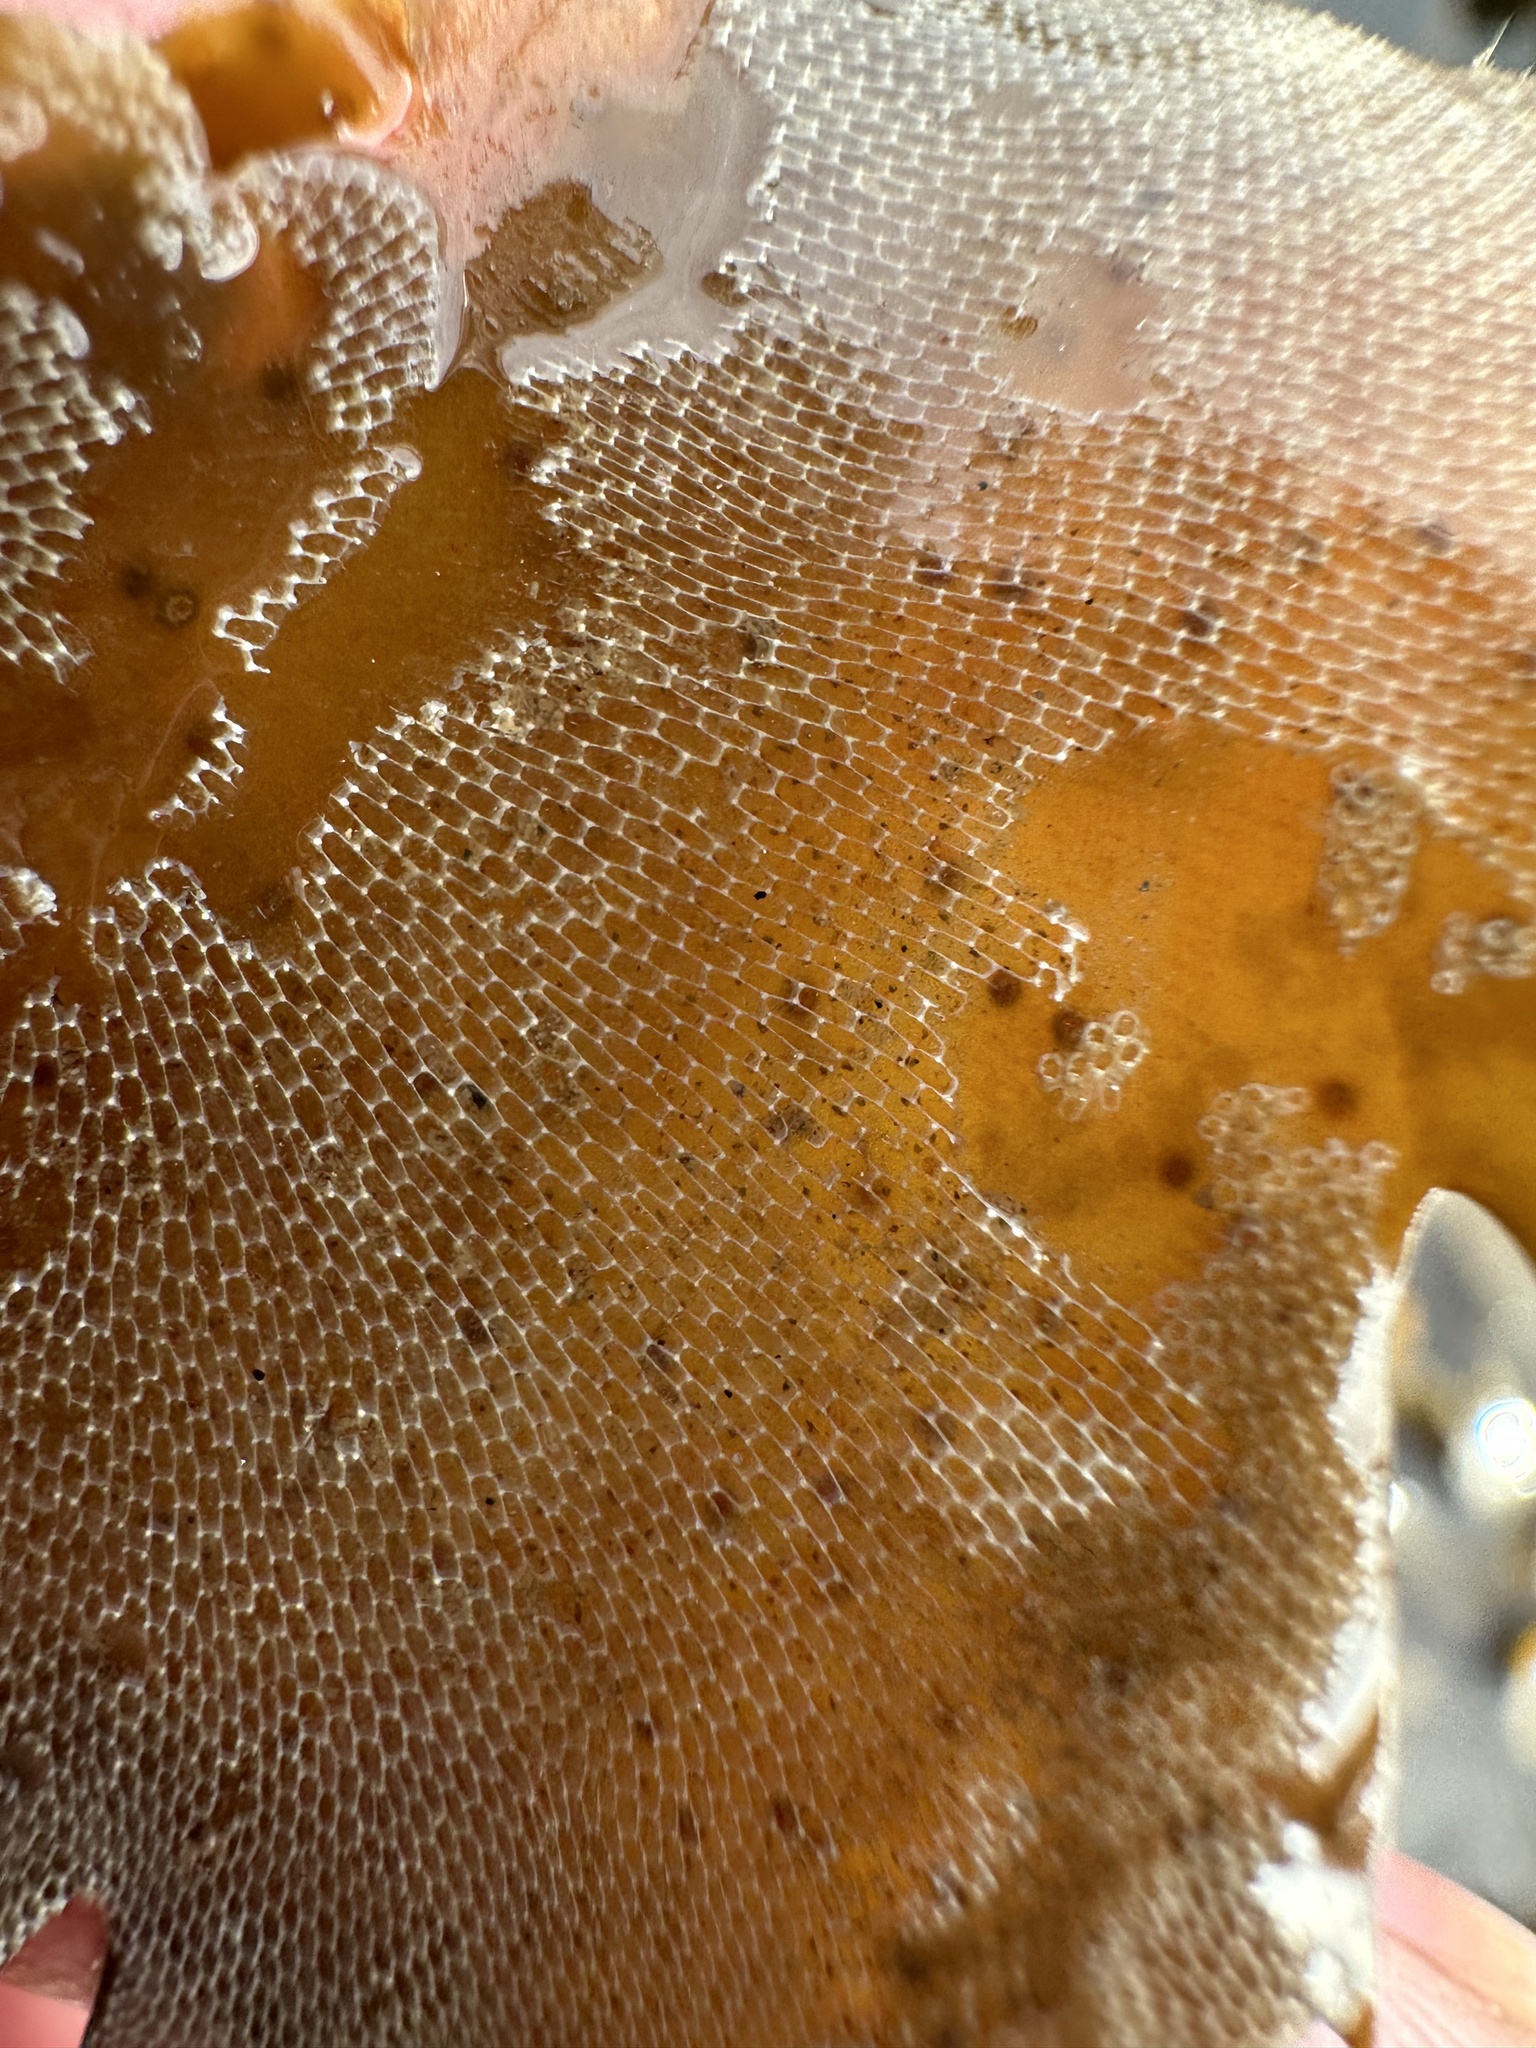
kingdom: Animalia
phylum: Bryozoa
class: Gymnolaemata
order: Cheilostomatida
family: Membraniporidae
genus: Membranipora
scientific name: Membranipora membranacea
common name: Sea mat
